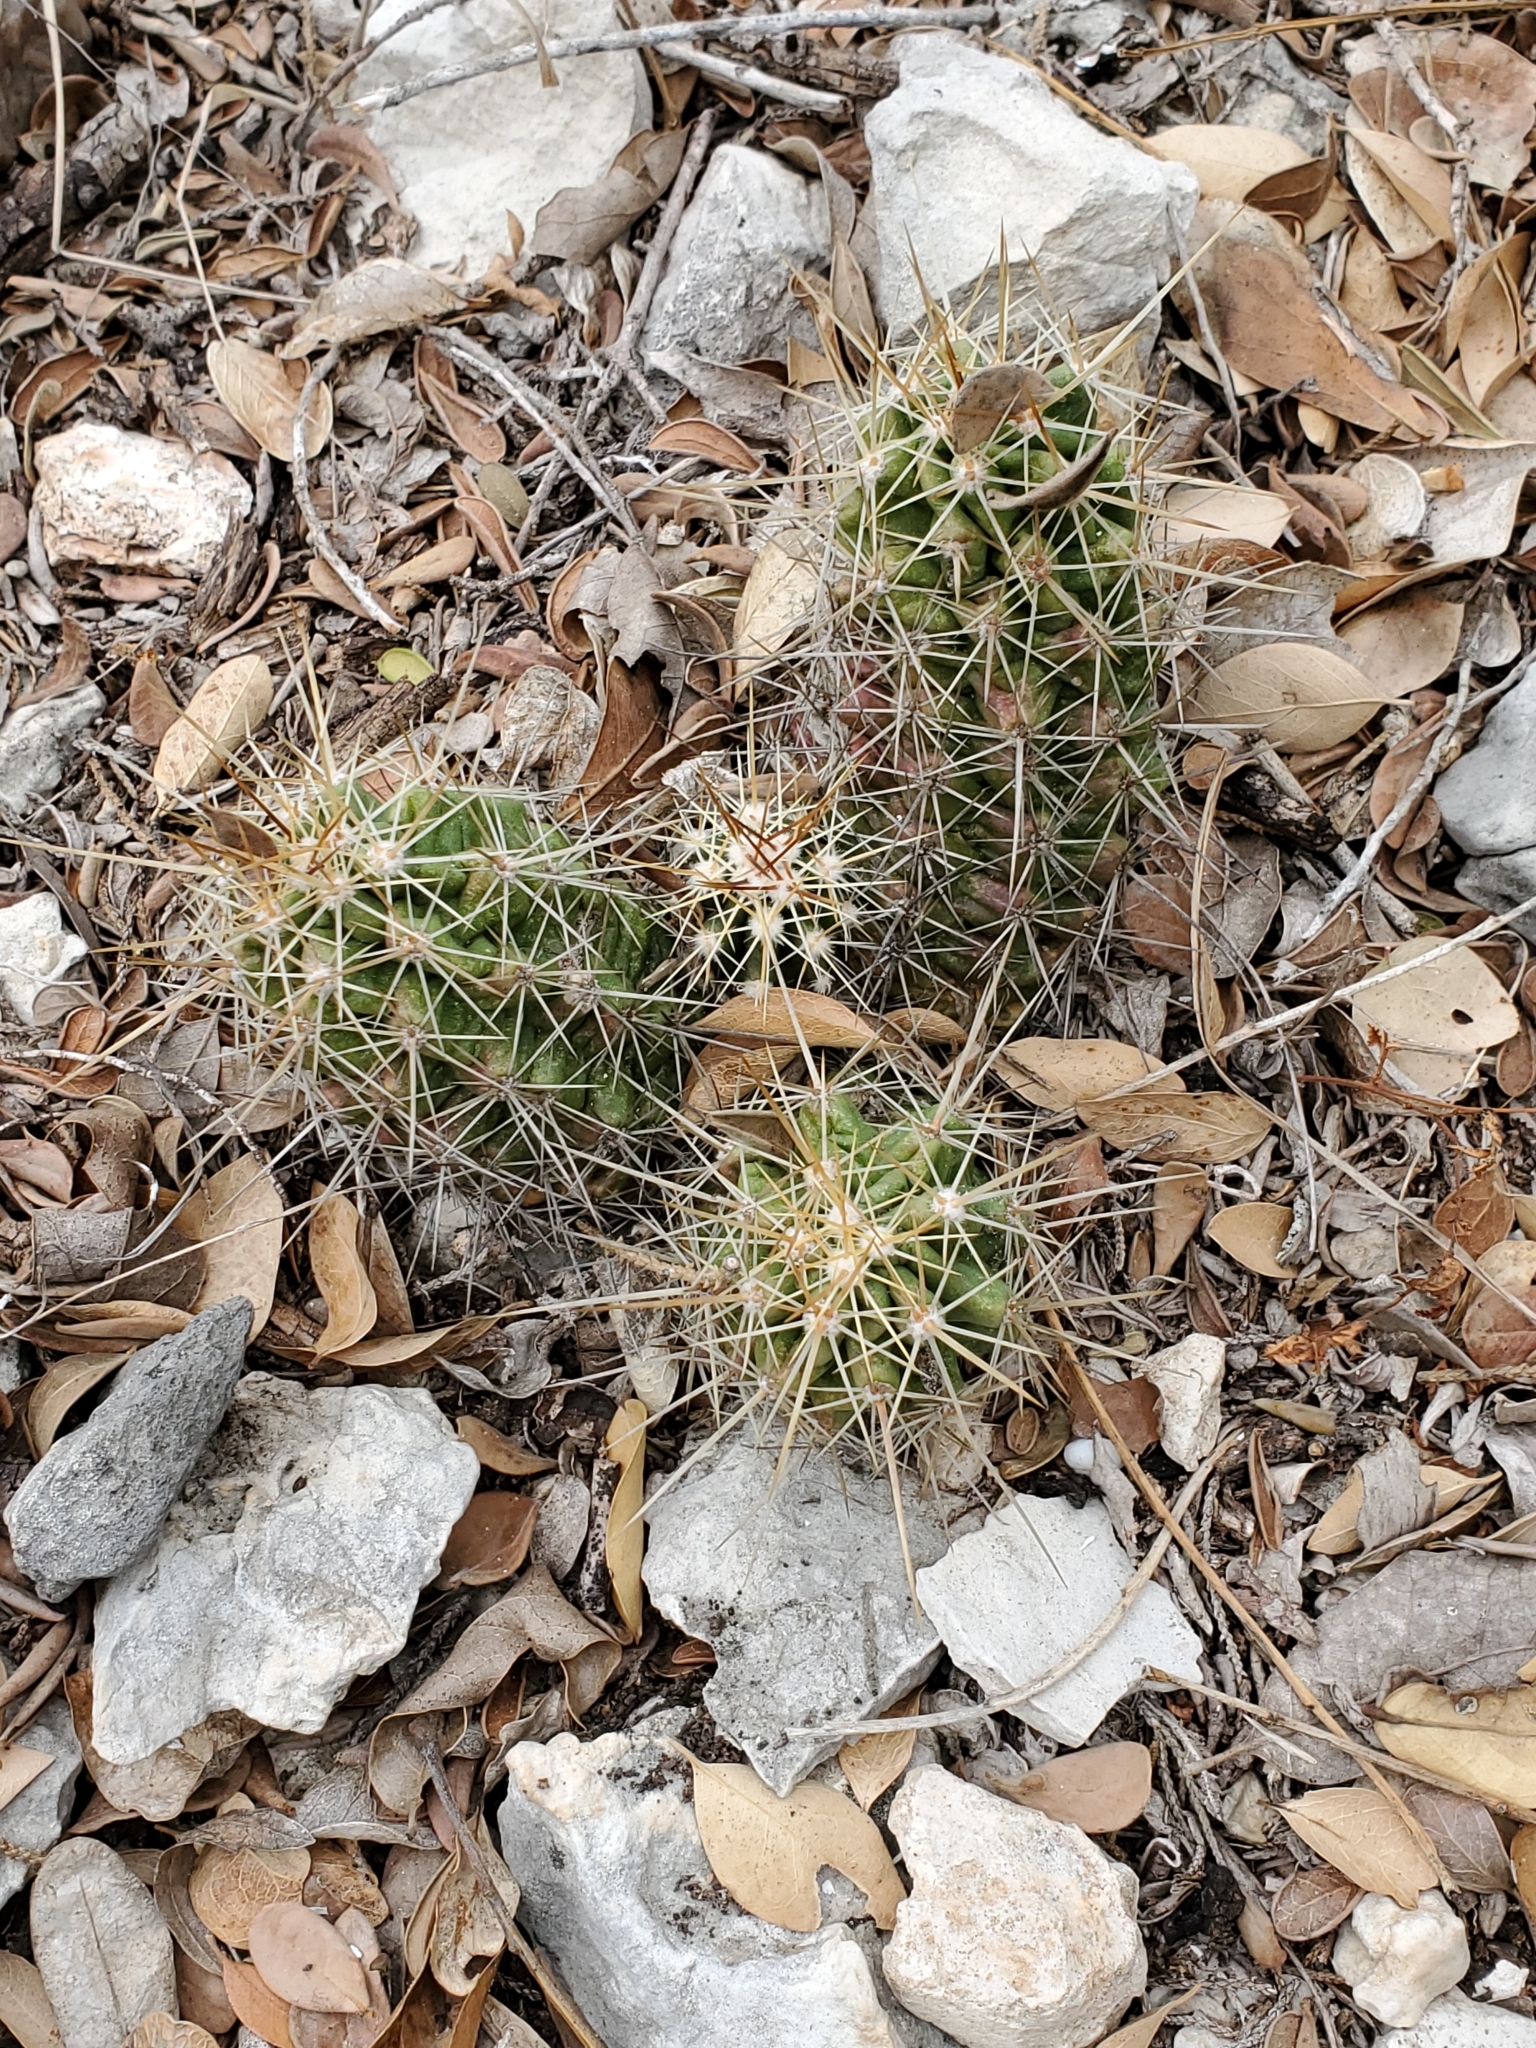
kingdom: Plantae
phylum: Tracheophyta
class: Magnoliopsida
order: Caryophyllales
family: Cactaceae
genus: Echinocereus
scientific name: Echinocereus enneacanthus
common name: Pitaya
